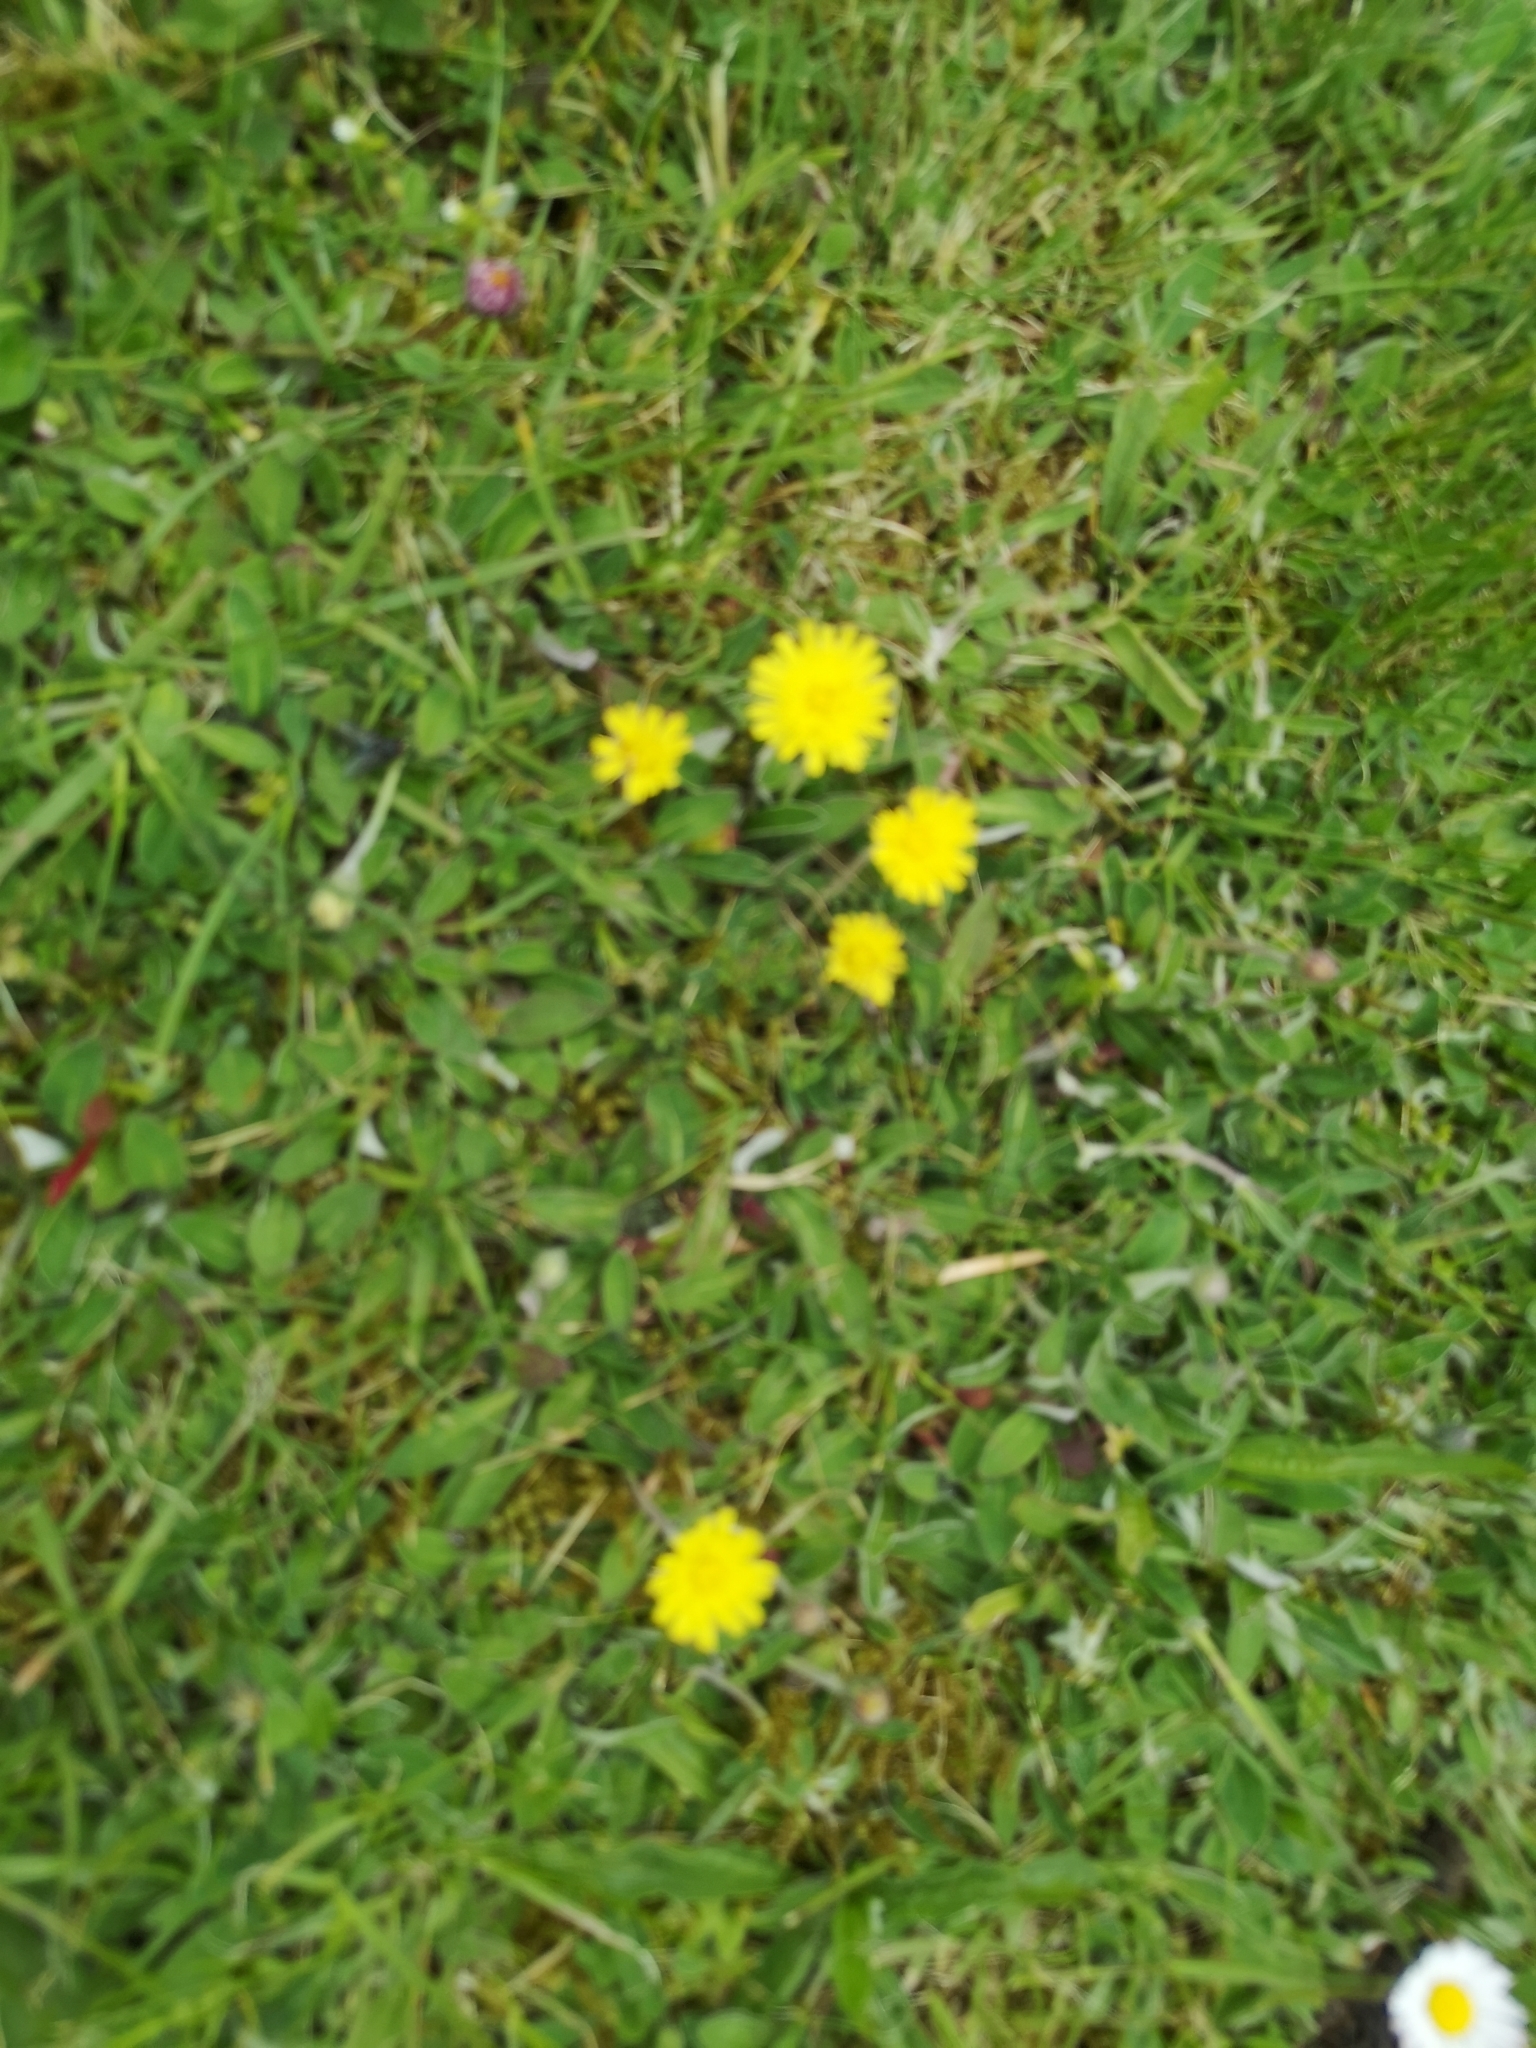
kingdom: Plantae
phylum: Tracheophyta
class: Magnoliopsida
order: Asterales
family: Asteraceae
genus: Pilosella
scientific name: Pilosella officinarum
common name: Mouse-ear hawkweed
